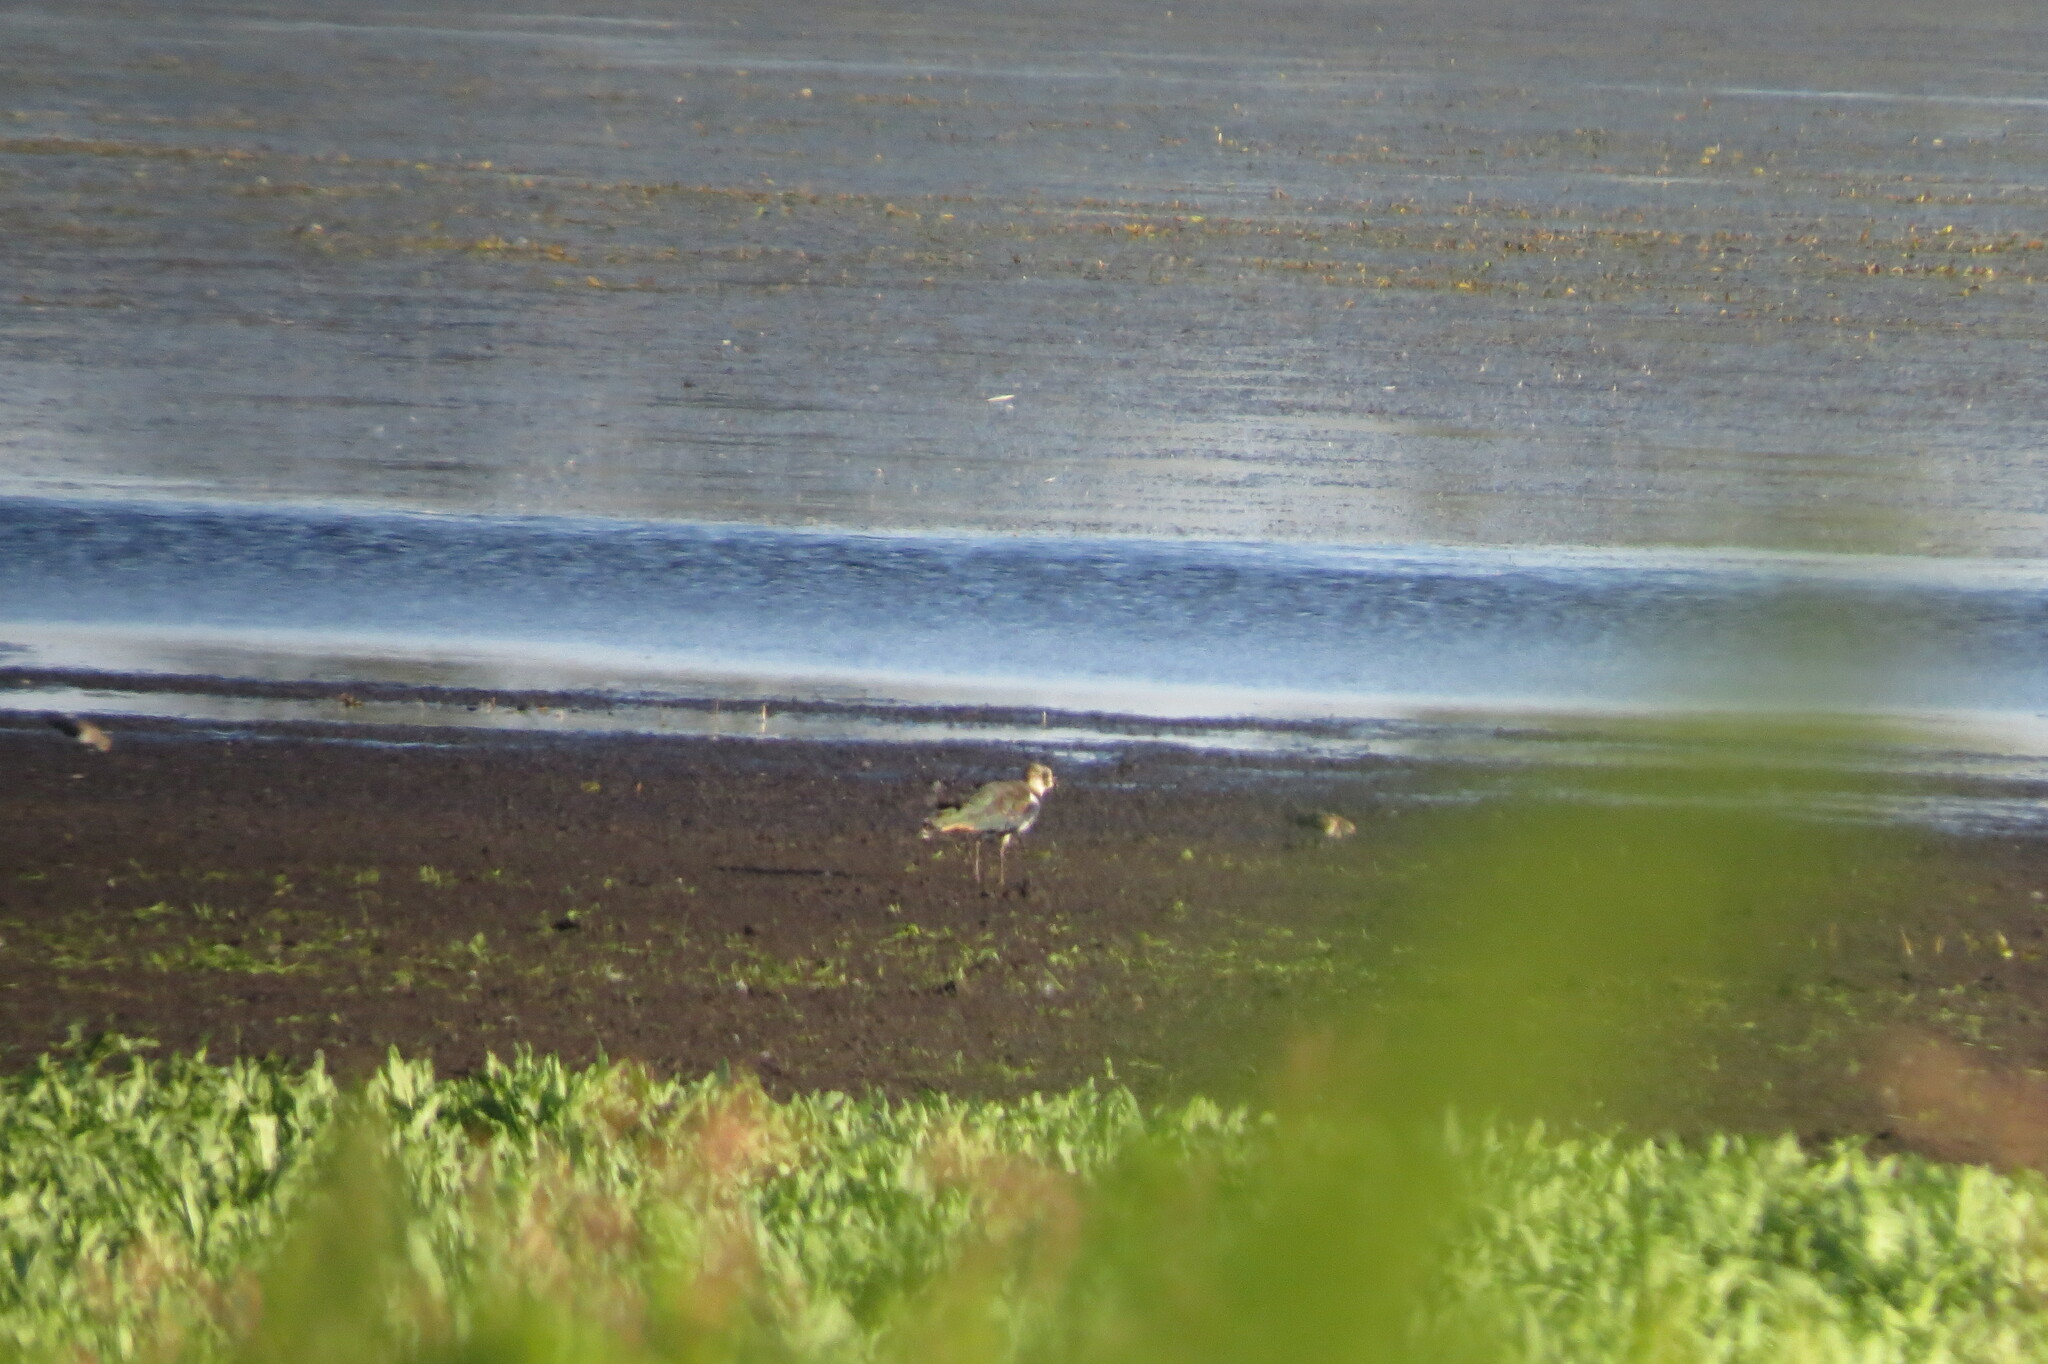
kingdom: Animalia
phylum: Chordata
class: Aves
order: Charadriiformes
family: Charadriidae
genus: Vanellus
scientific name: Vanellus vanellus
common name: Northern lapwing
